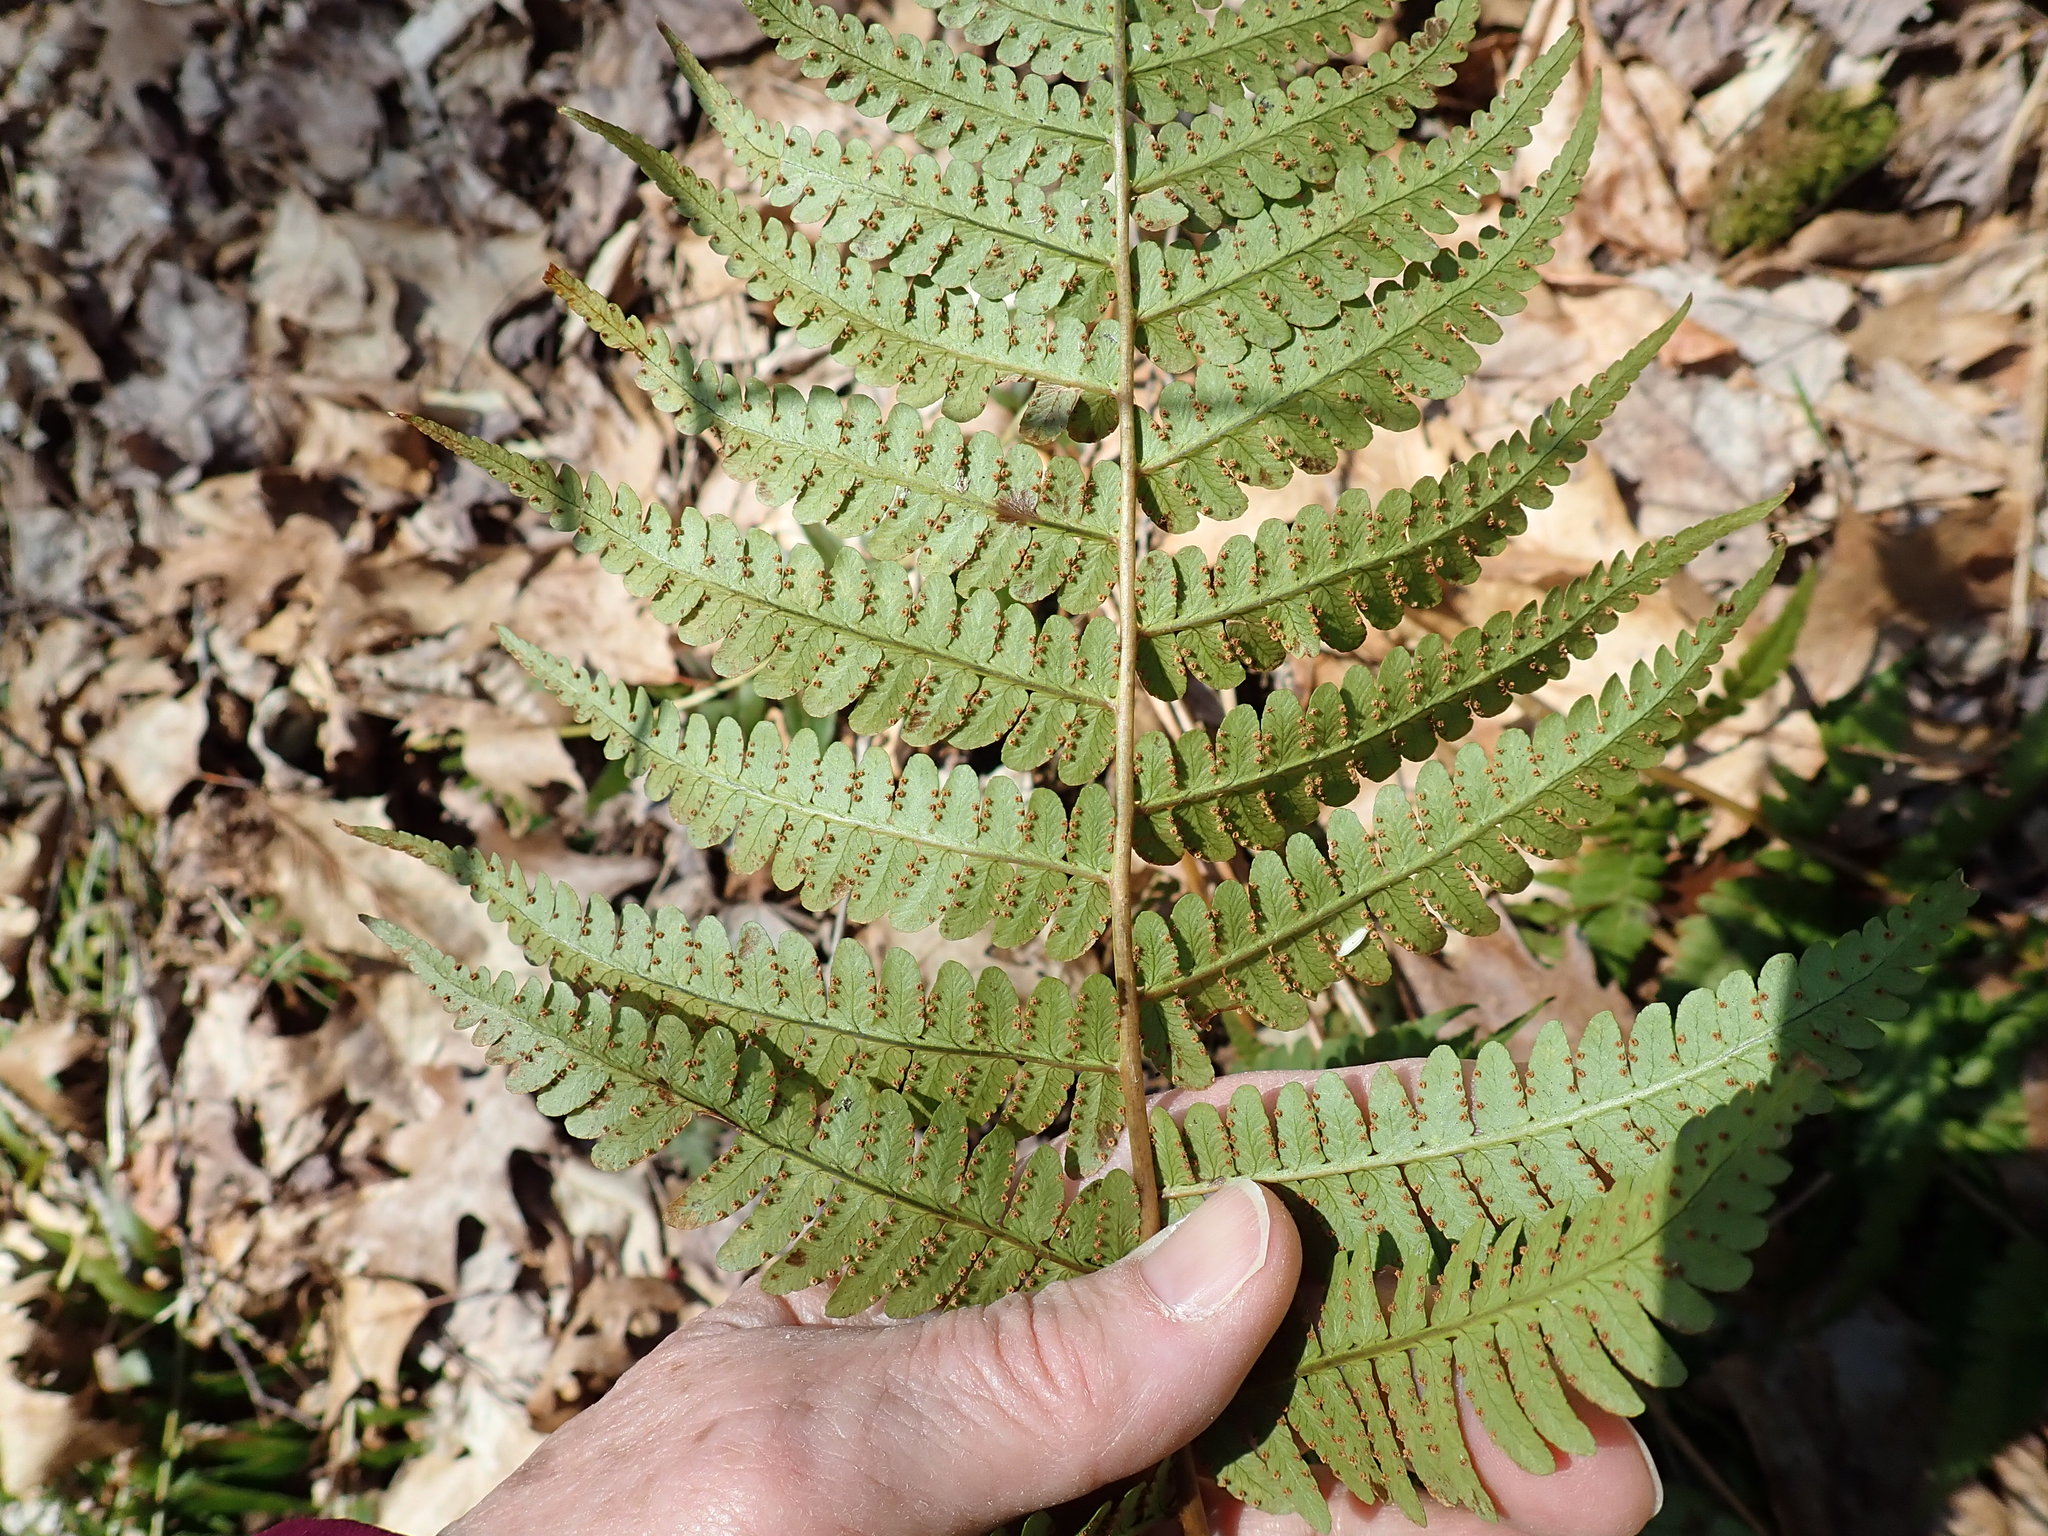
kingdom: Plantae
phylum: Tracheophyta
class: Polypodiopsida
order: Polypodiales
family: Dryopteridaceae
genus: Dryopteris
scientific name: Dryopteris marginalis
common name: Marginal wood fern
